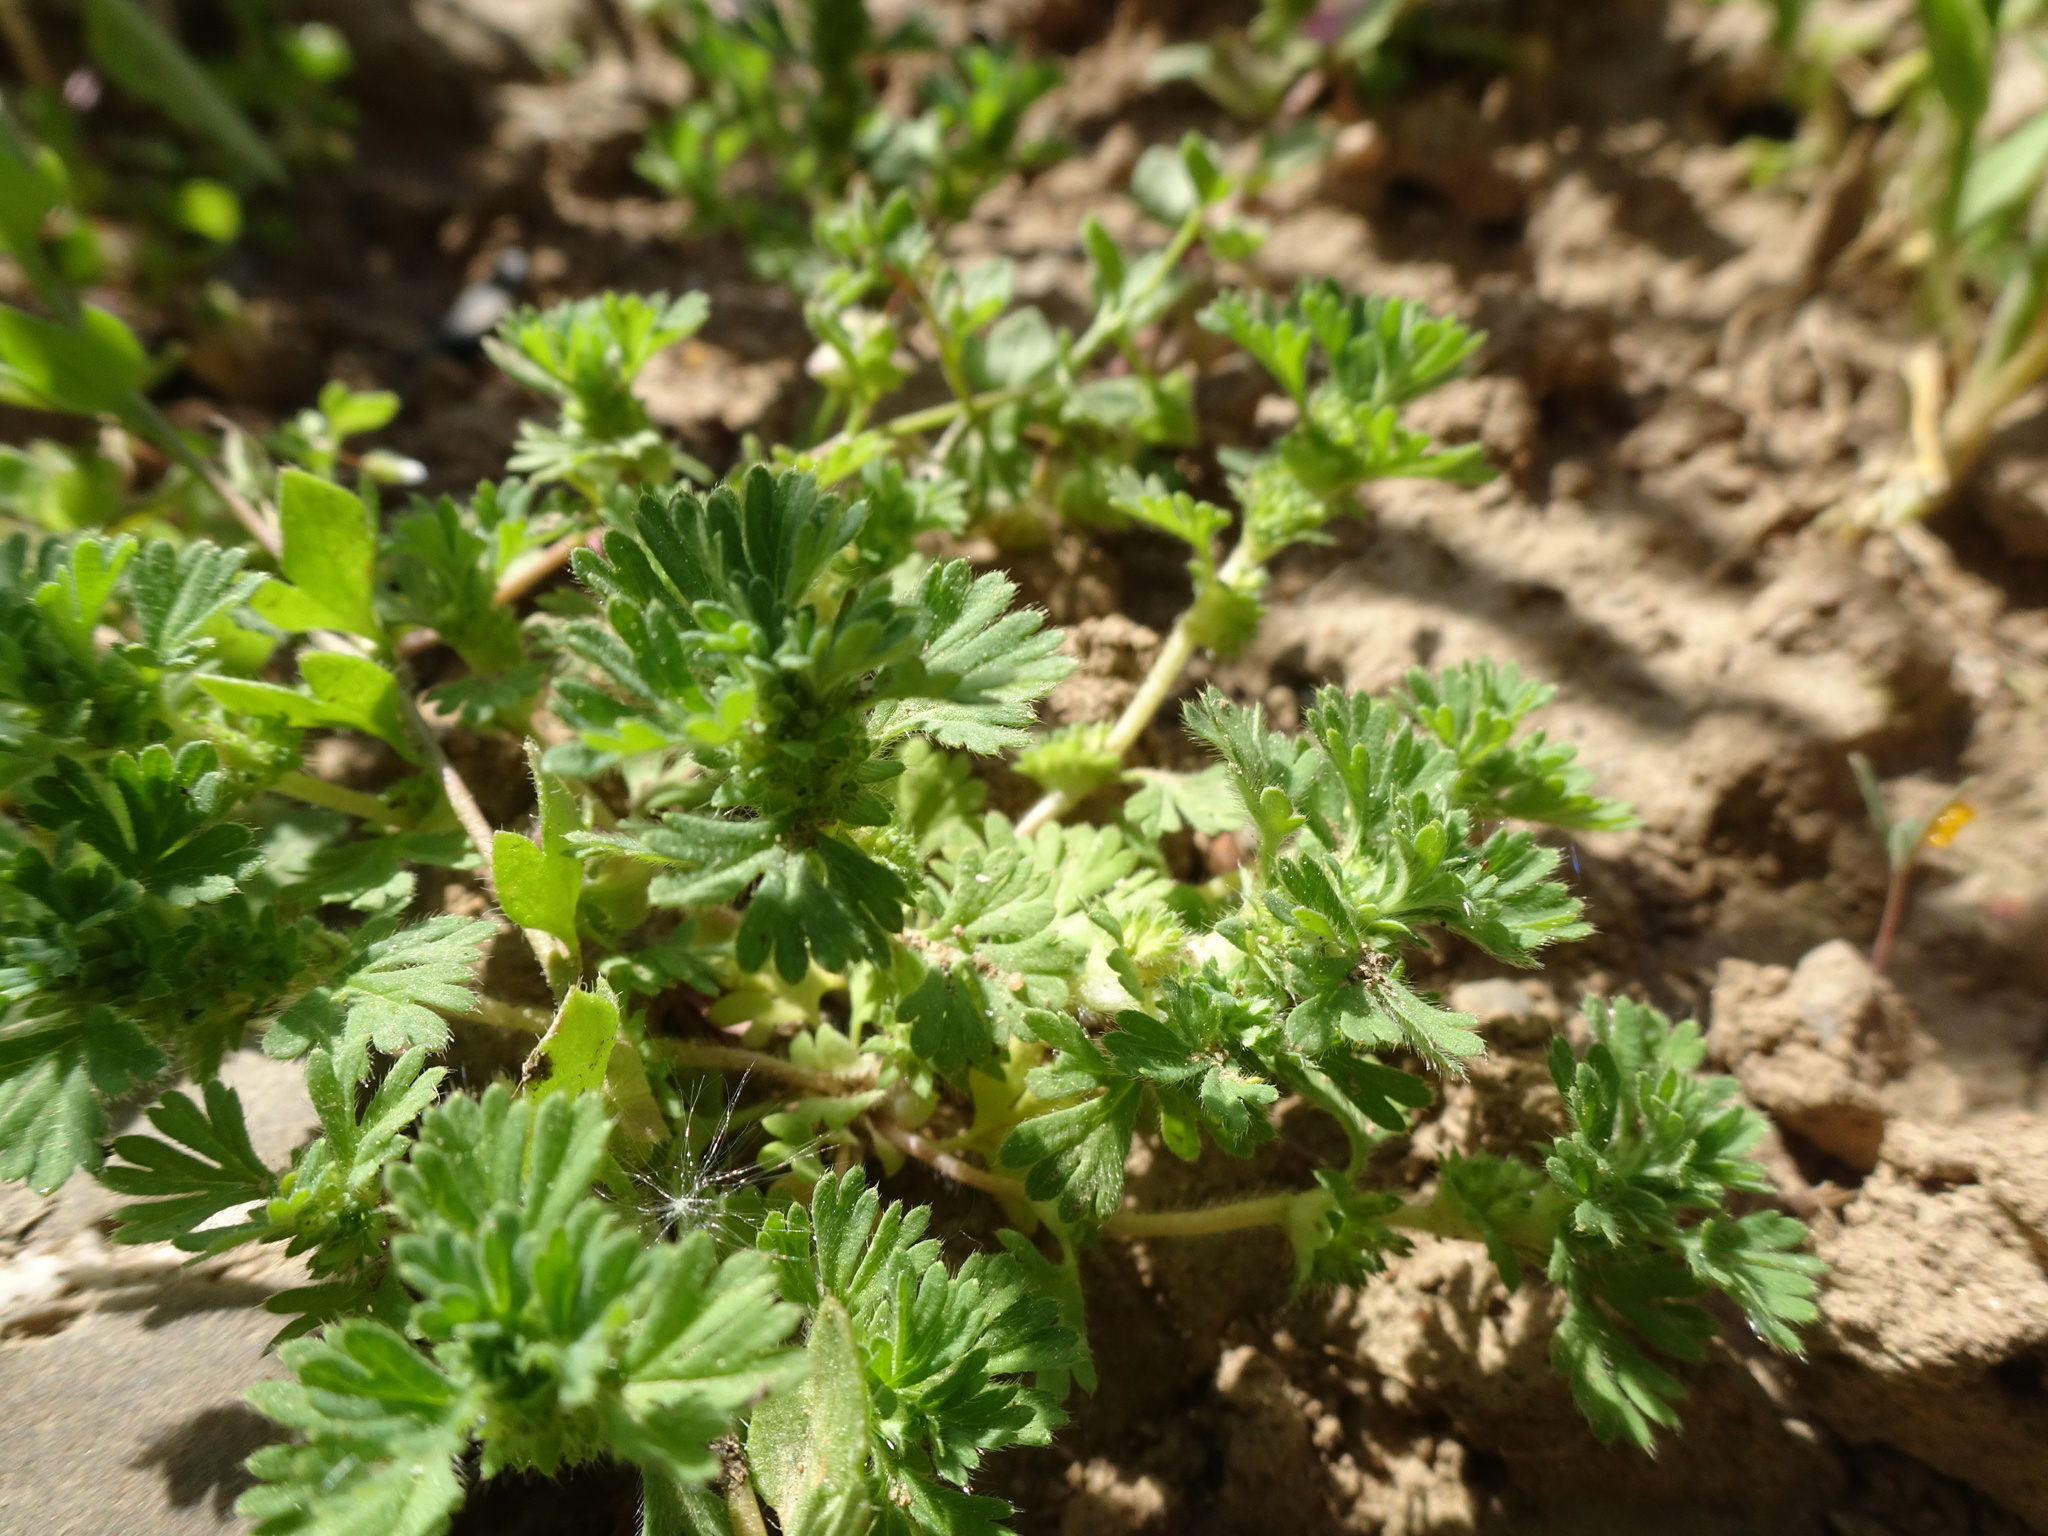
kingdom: Plantae
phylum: Tracheophyta
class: Magnoliopsida
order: Rosales
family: Rosaceae
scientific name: Rosaceae
